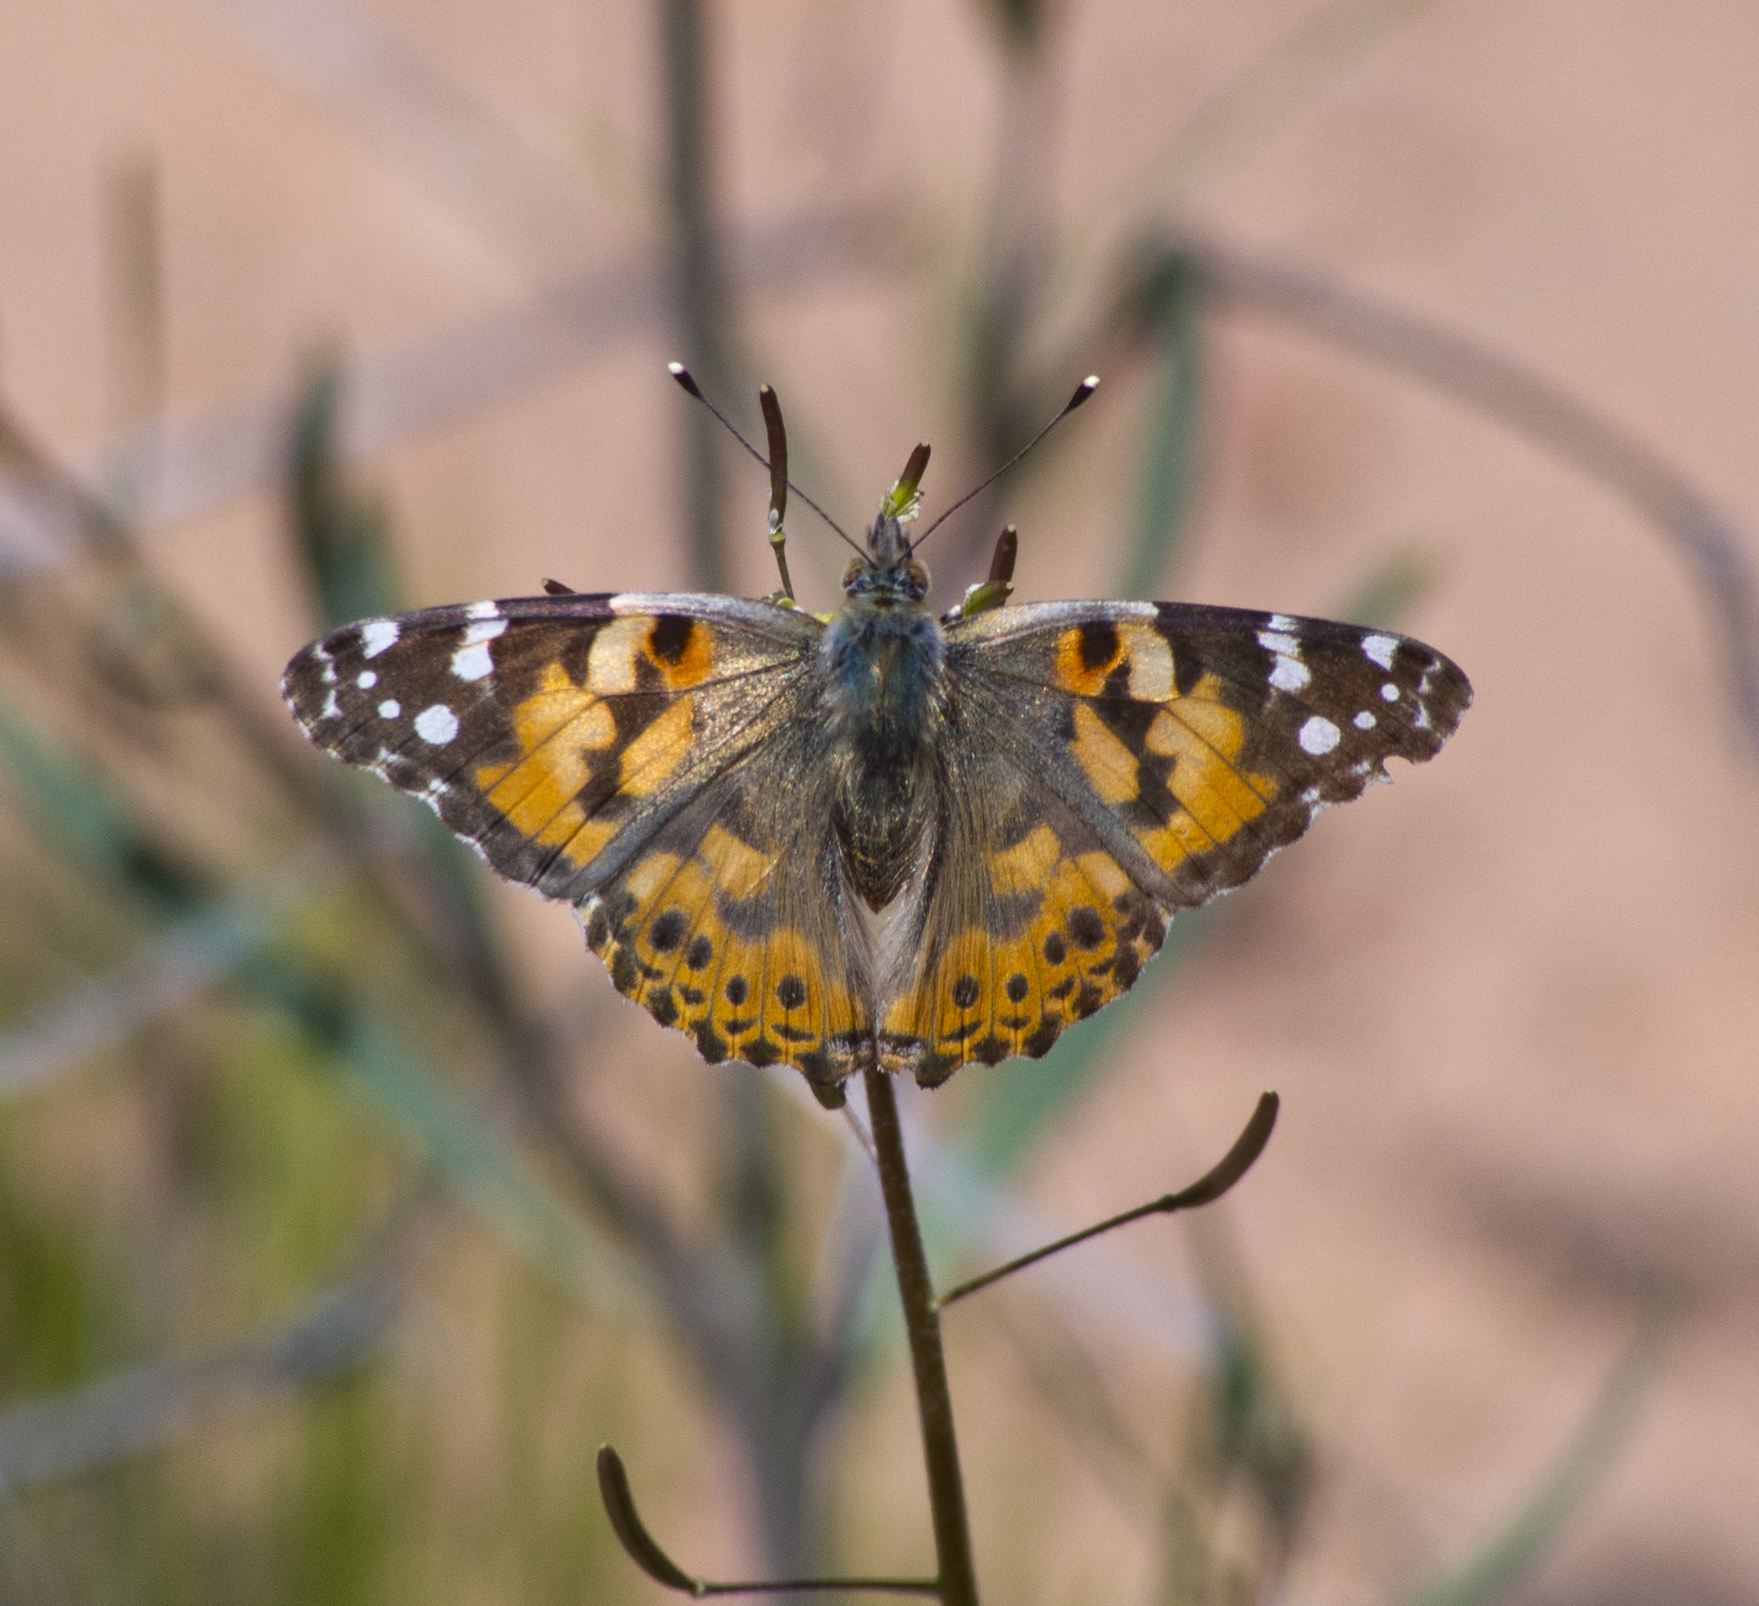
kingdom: Animalia
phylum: Arthropoda
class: Insecta
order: Lepidoptera
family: Nymphalidae
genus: Vanessa
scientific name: Vanessa cardui
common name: Painted lady
